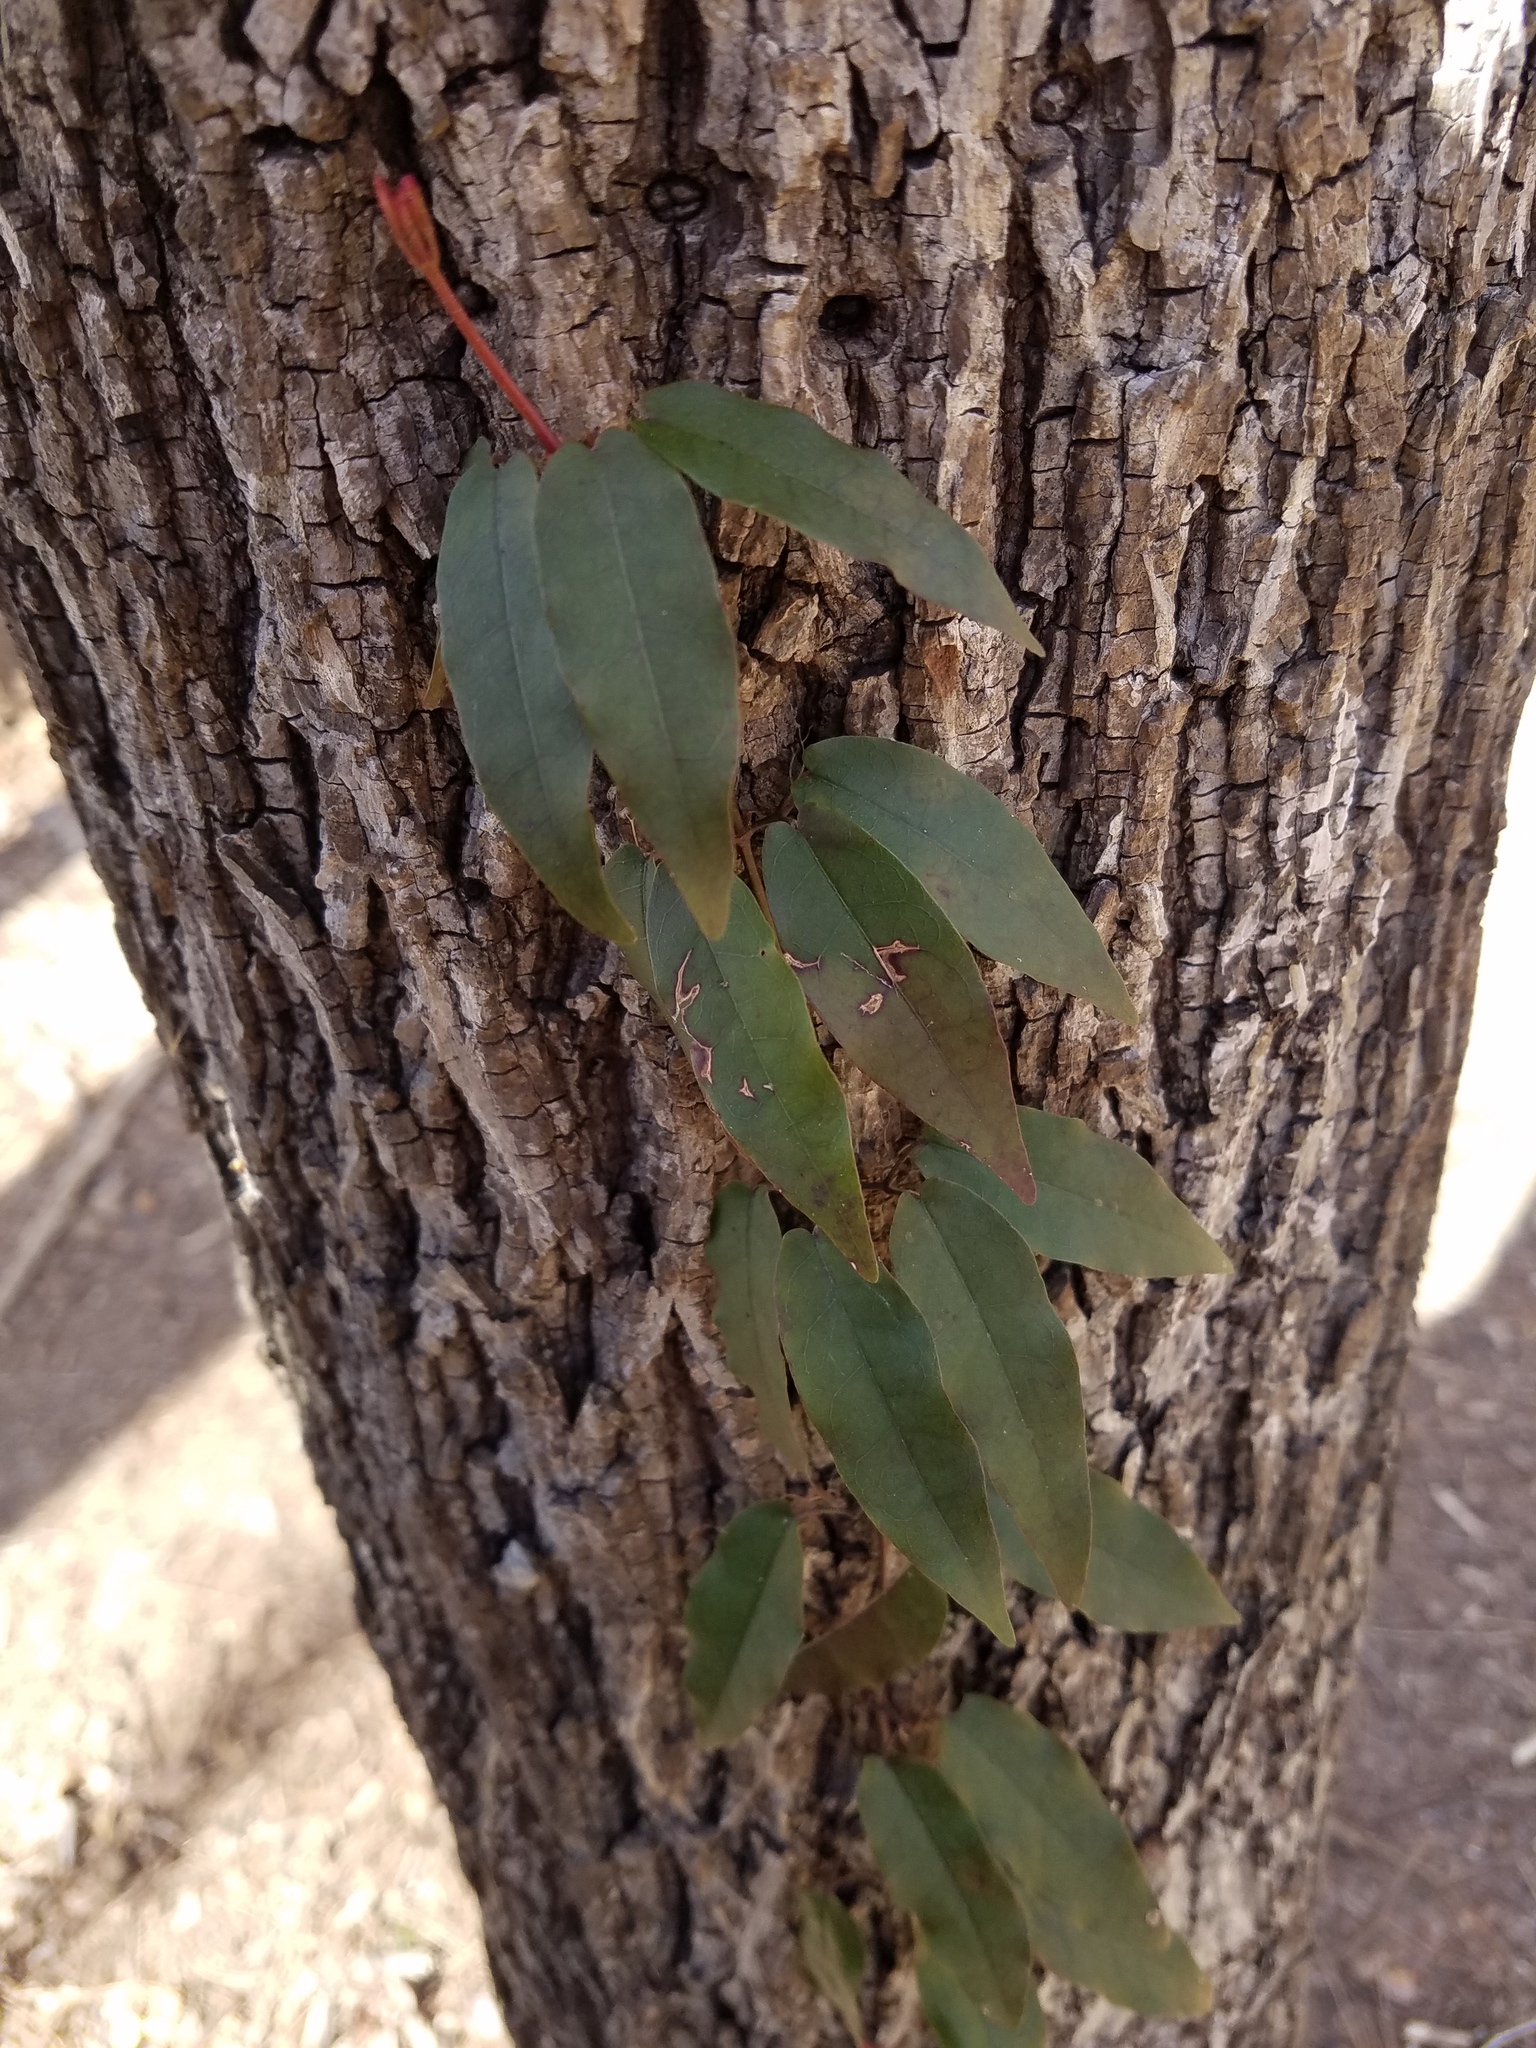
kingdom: Plantae
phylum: Tracheophyta
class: Magnoliopsida
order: Lamiales
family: Bignoniaceae
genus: Bignonia
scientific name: Bignonia capreolata
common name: Crossvine
